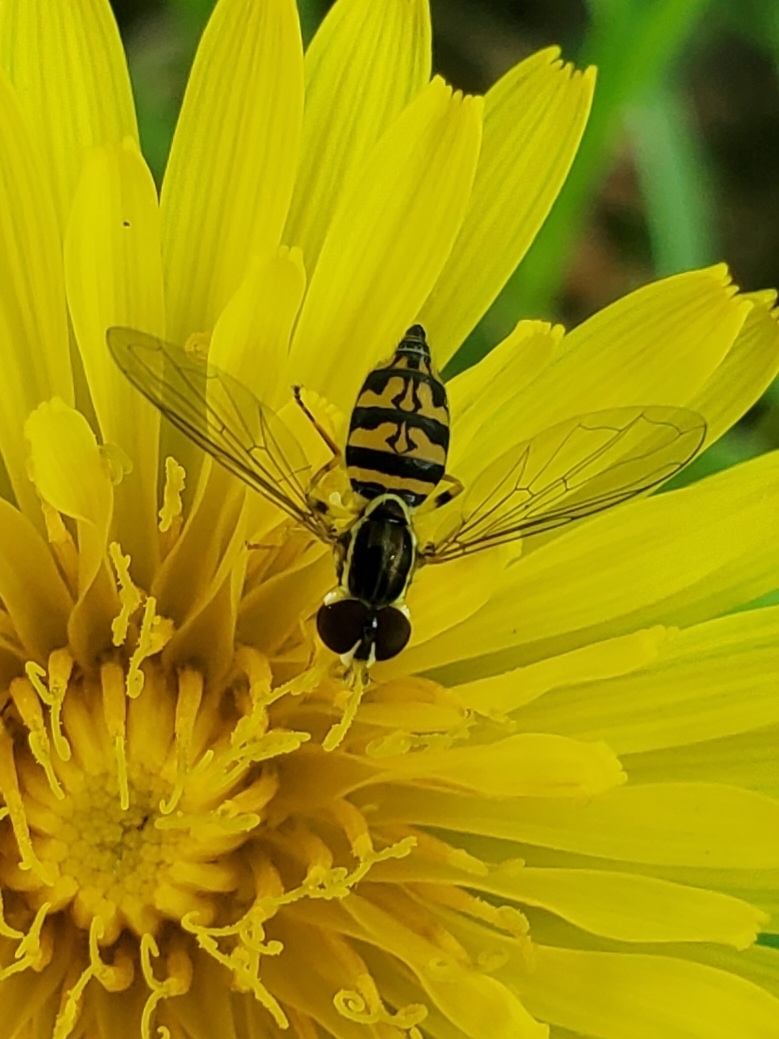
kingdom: Animalia
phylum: Arthropoda
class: Insecta
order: Diptera
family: Syrphidae
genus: Toxomerus
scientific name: Toxomerus geminatus
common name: Eastern calligrapher
